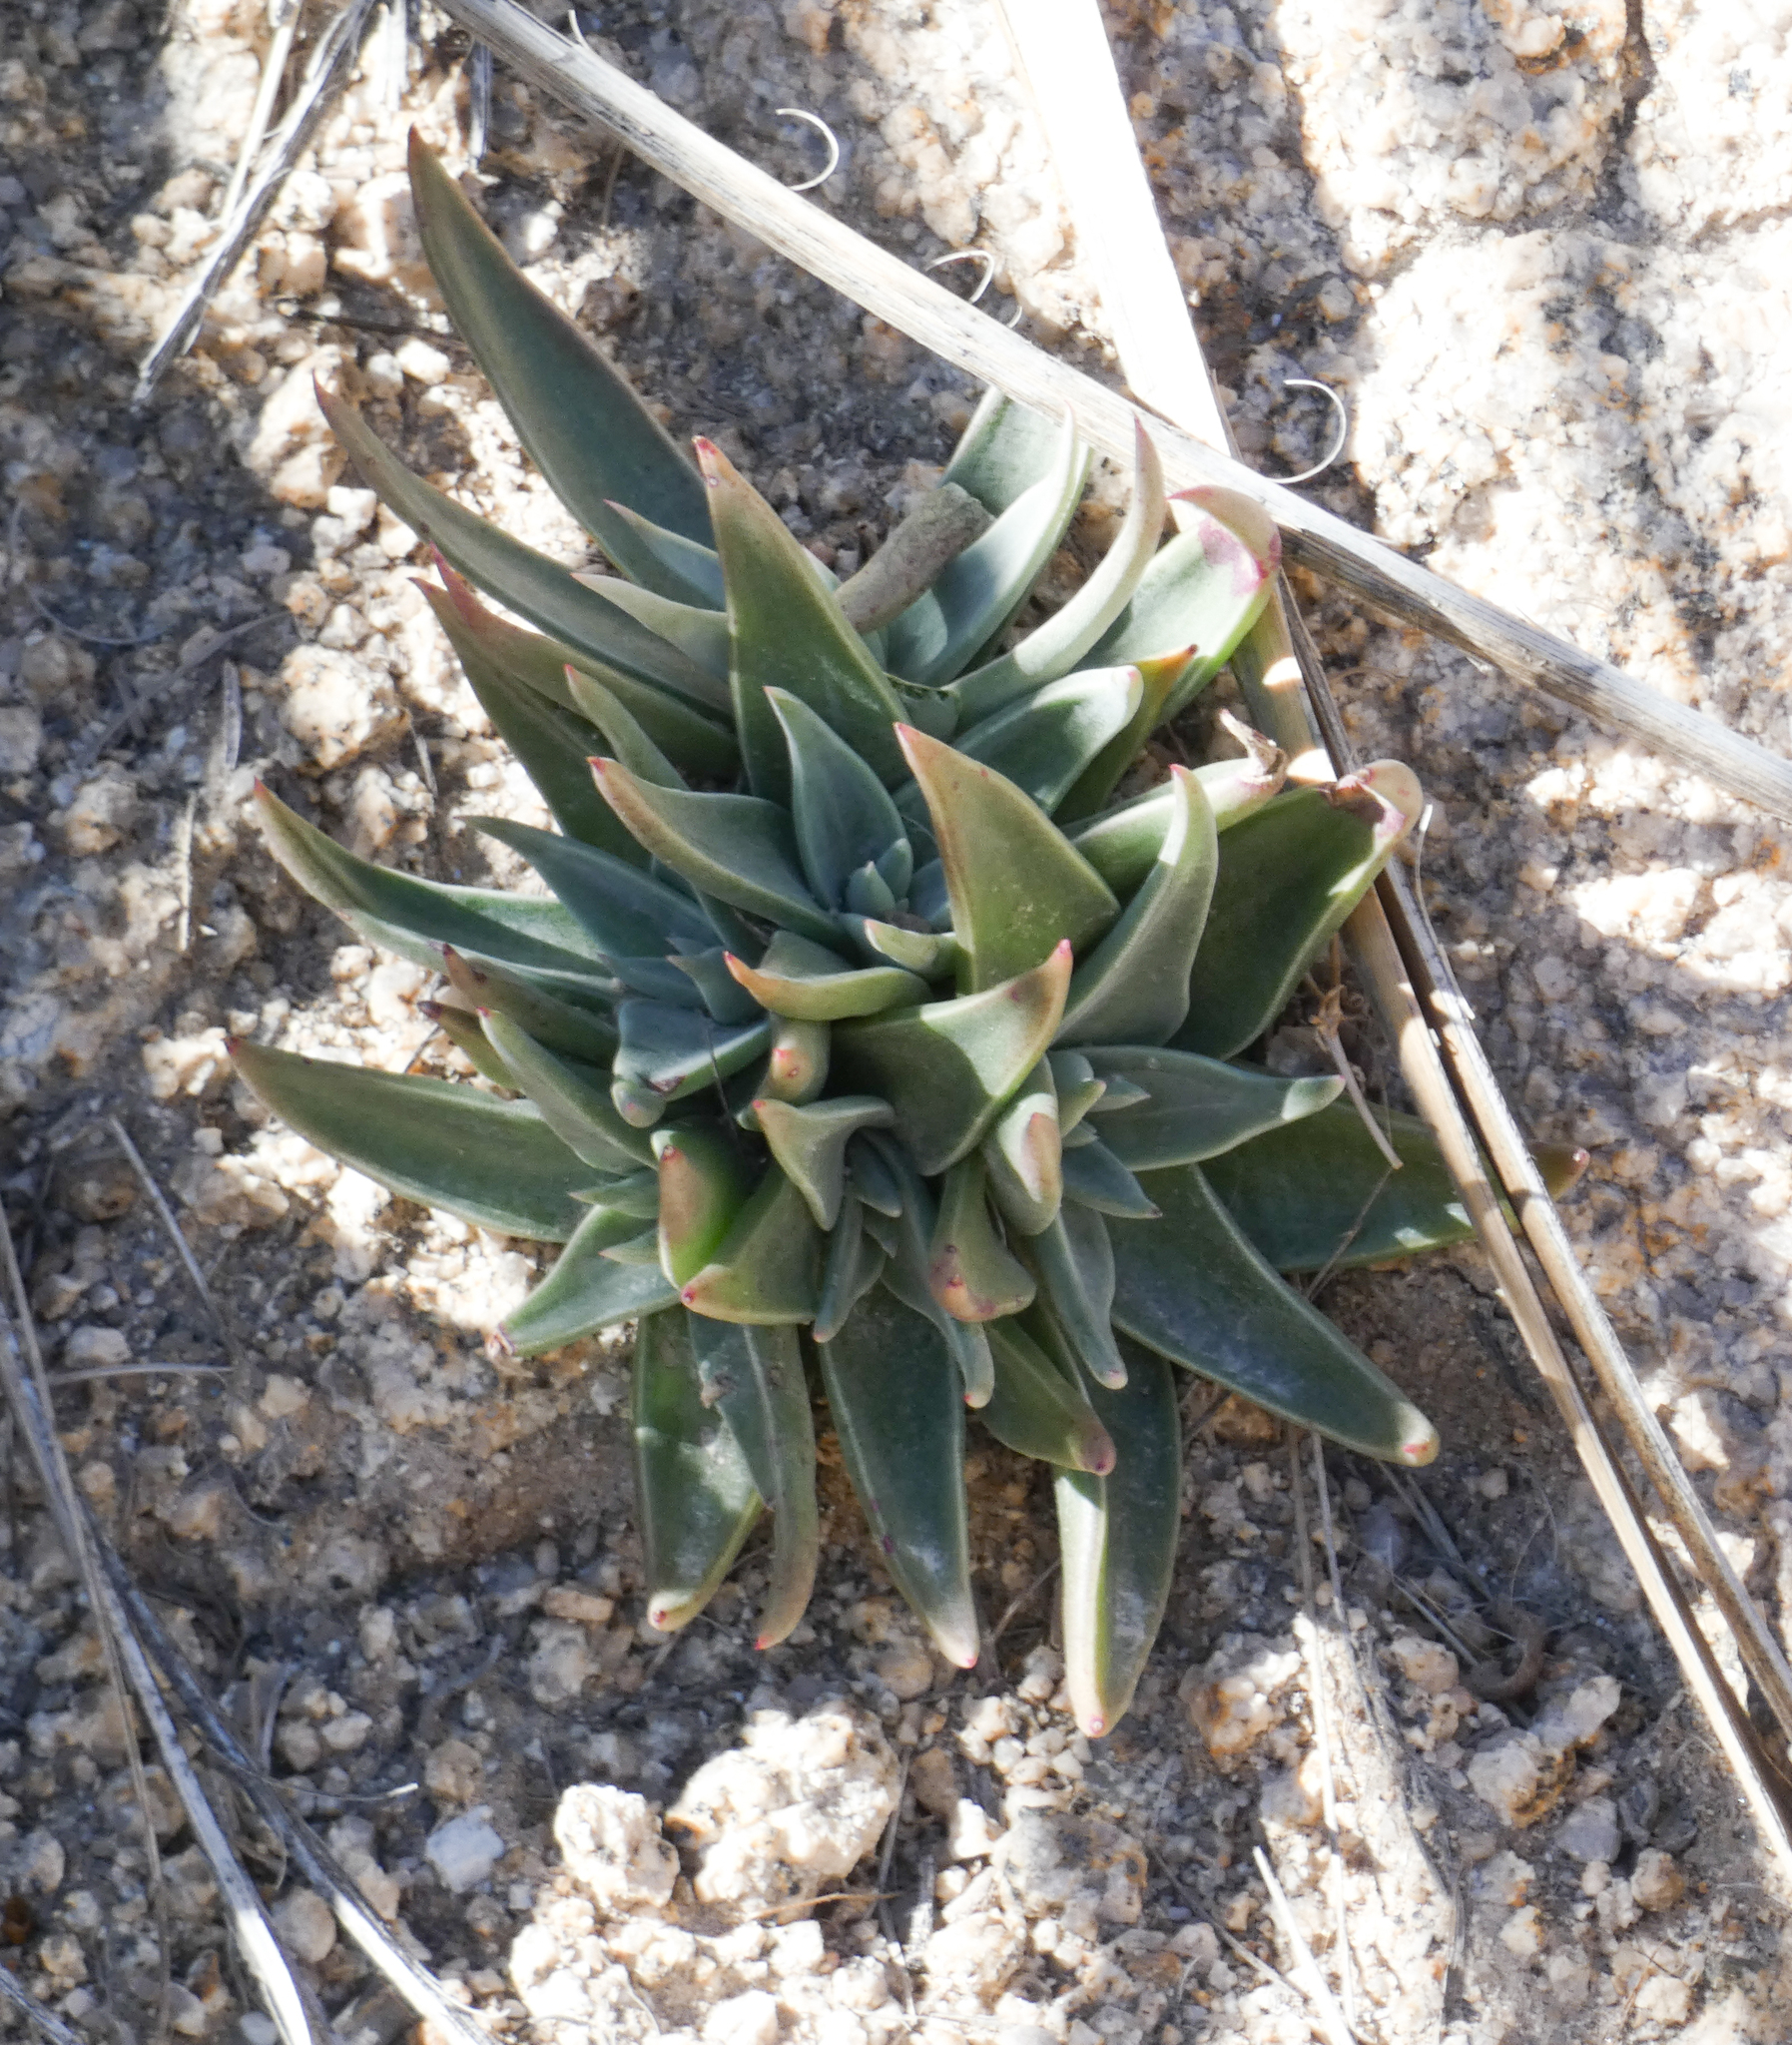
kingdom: Plantae
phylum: Tracheophyta
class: Magnoliopsida
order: Saxifragales
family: Crassulaceae
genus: Dudleya
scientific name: Dudleya saxosa
